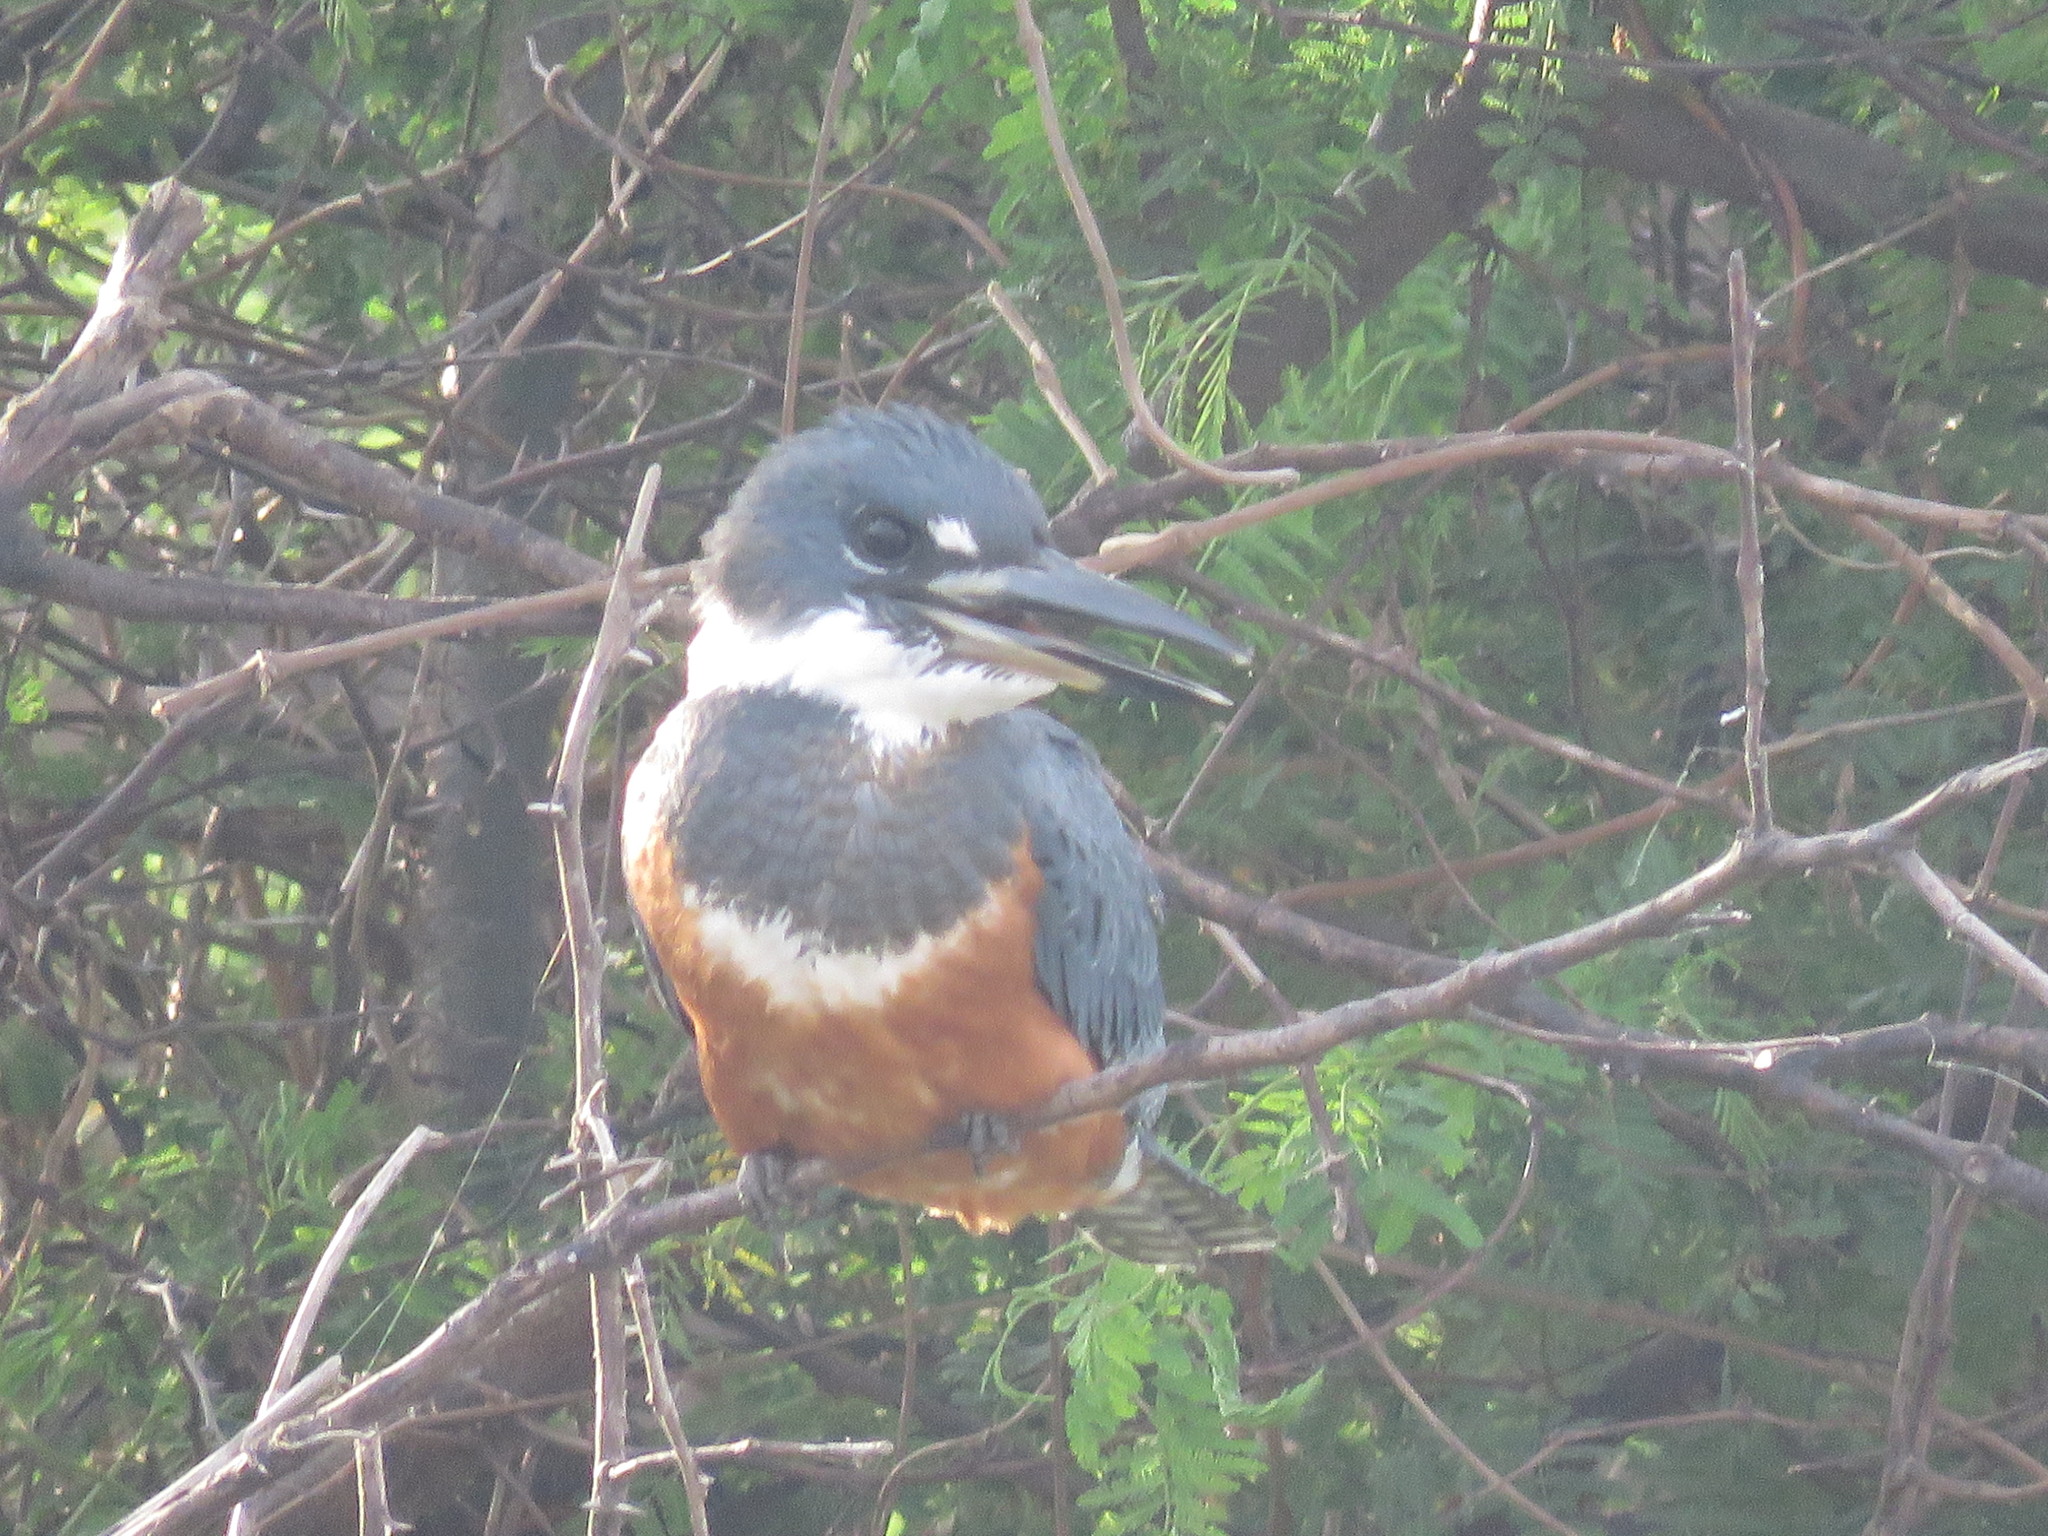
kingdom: Animalia
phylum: Chordata
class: Aves
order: Coraciiformes
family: Alcedinidae
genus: Megaceryle
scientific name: Megaceryle torquata
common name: Ringed kingfisher
